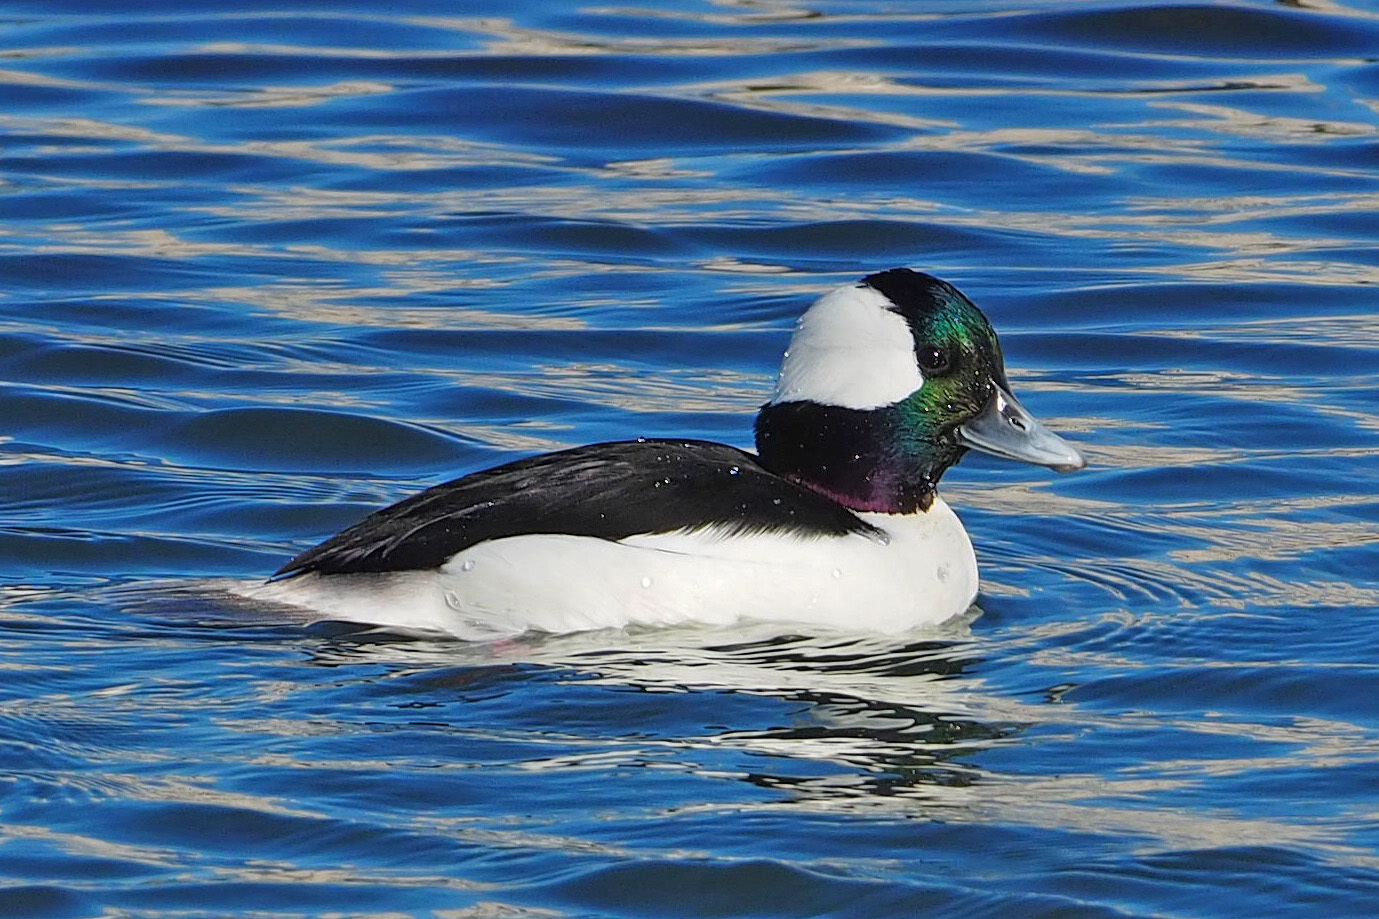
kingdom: Animalia
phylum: Chordata
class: Aves
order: Anseriformes
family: Anatidae
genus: Bucephala
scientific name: Bucephala albeola
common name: Bufflehead
